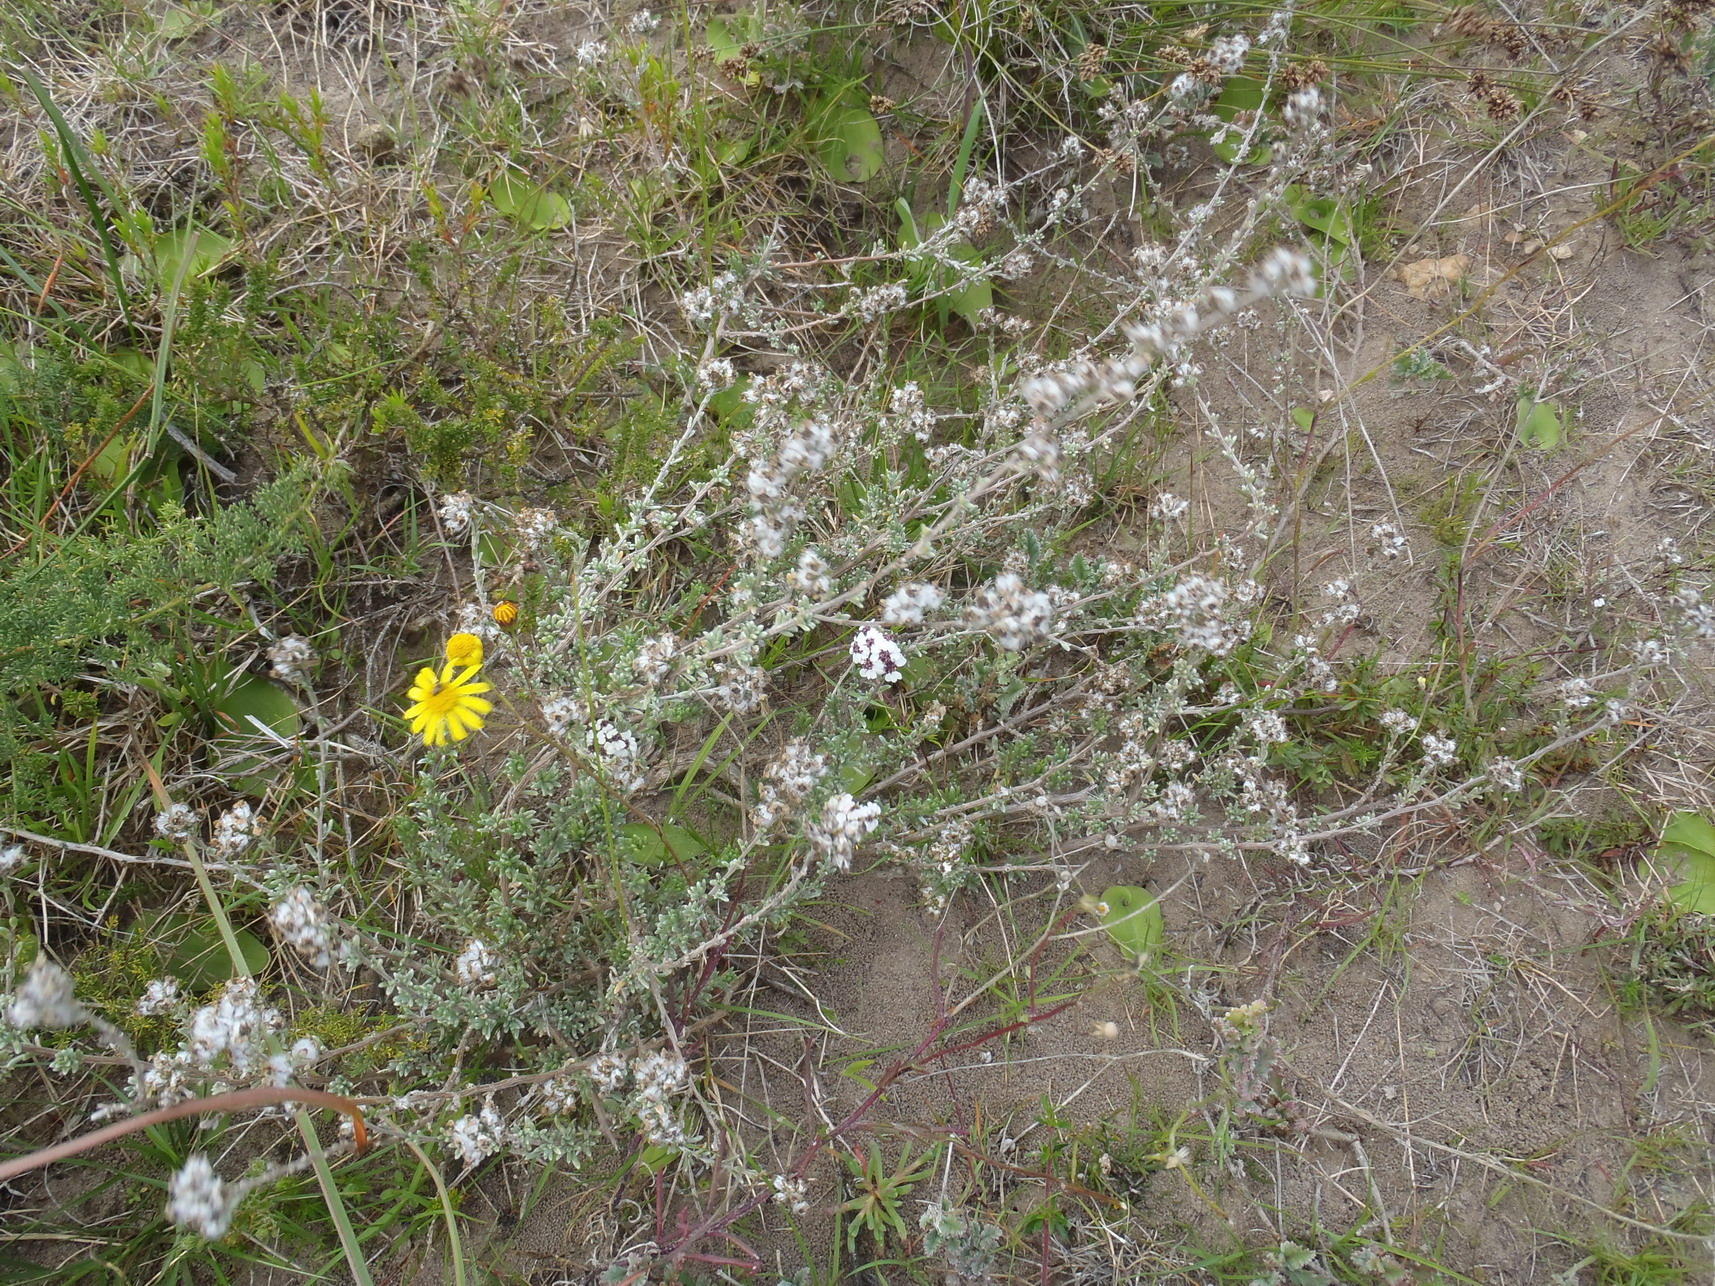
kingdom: Plantae
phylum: Tracheophyta
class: Magnoliopsida
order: Asterales
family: Asteraceae
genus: Eriocephalus
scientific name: Eriocephalus africanus
